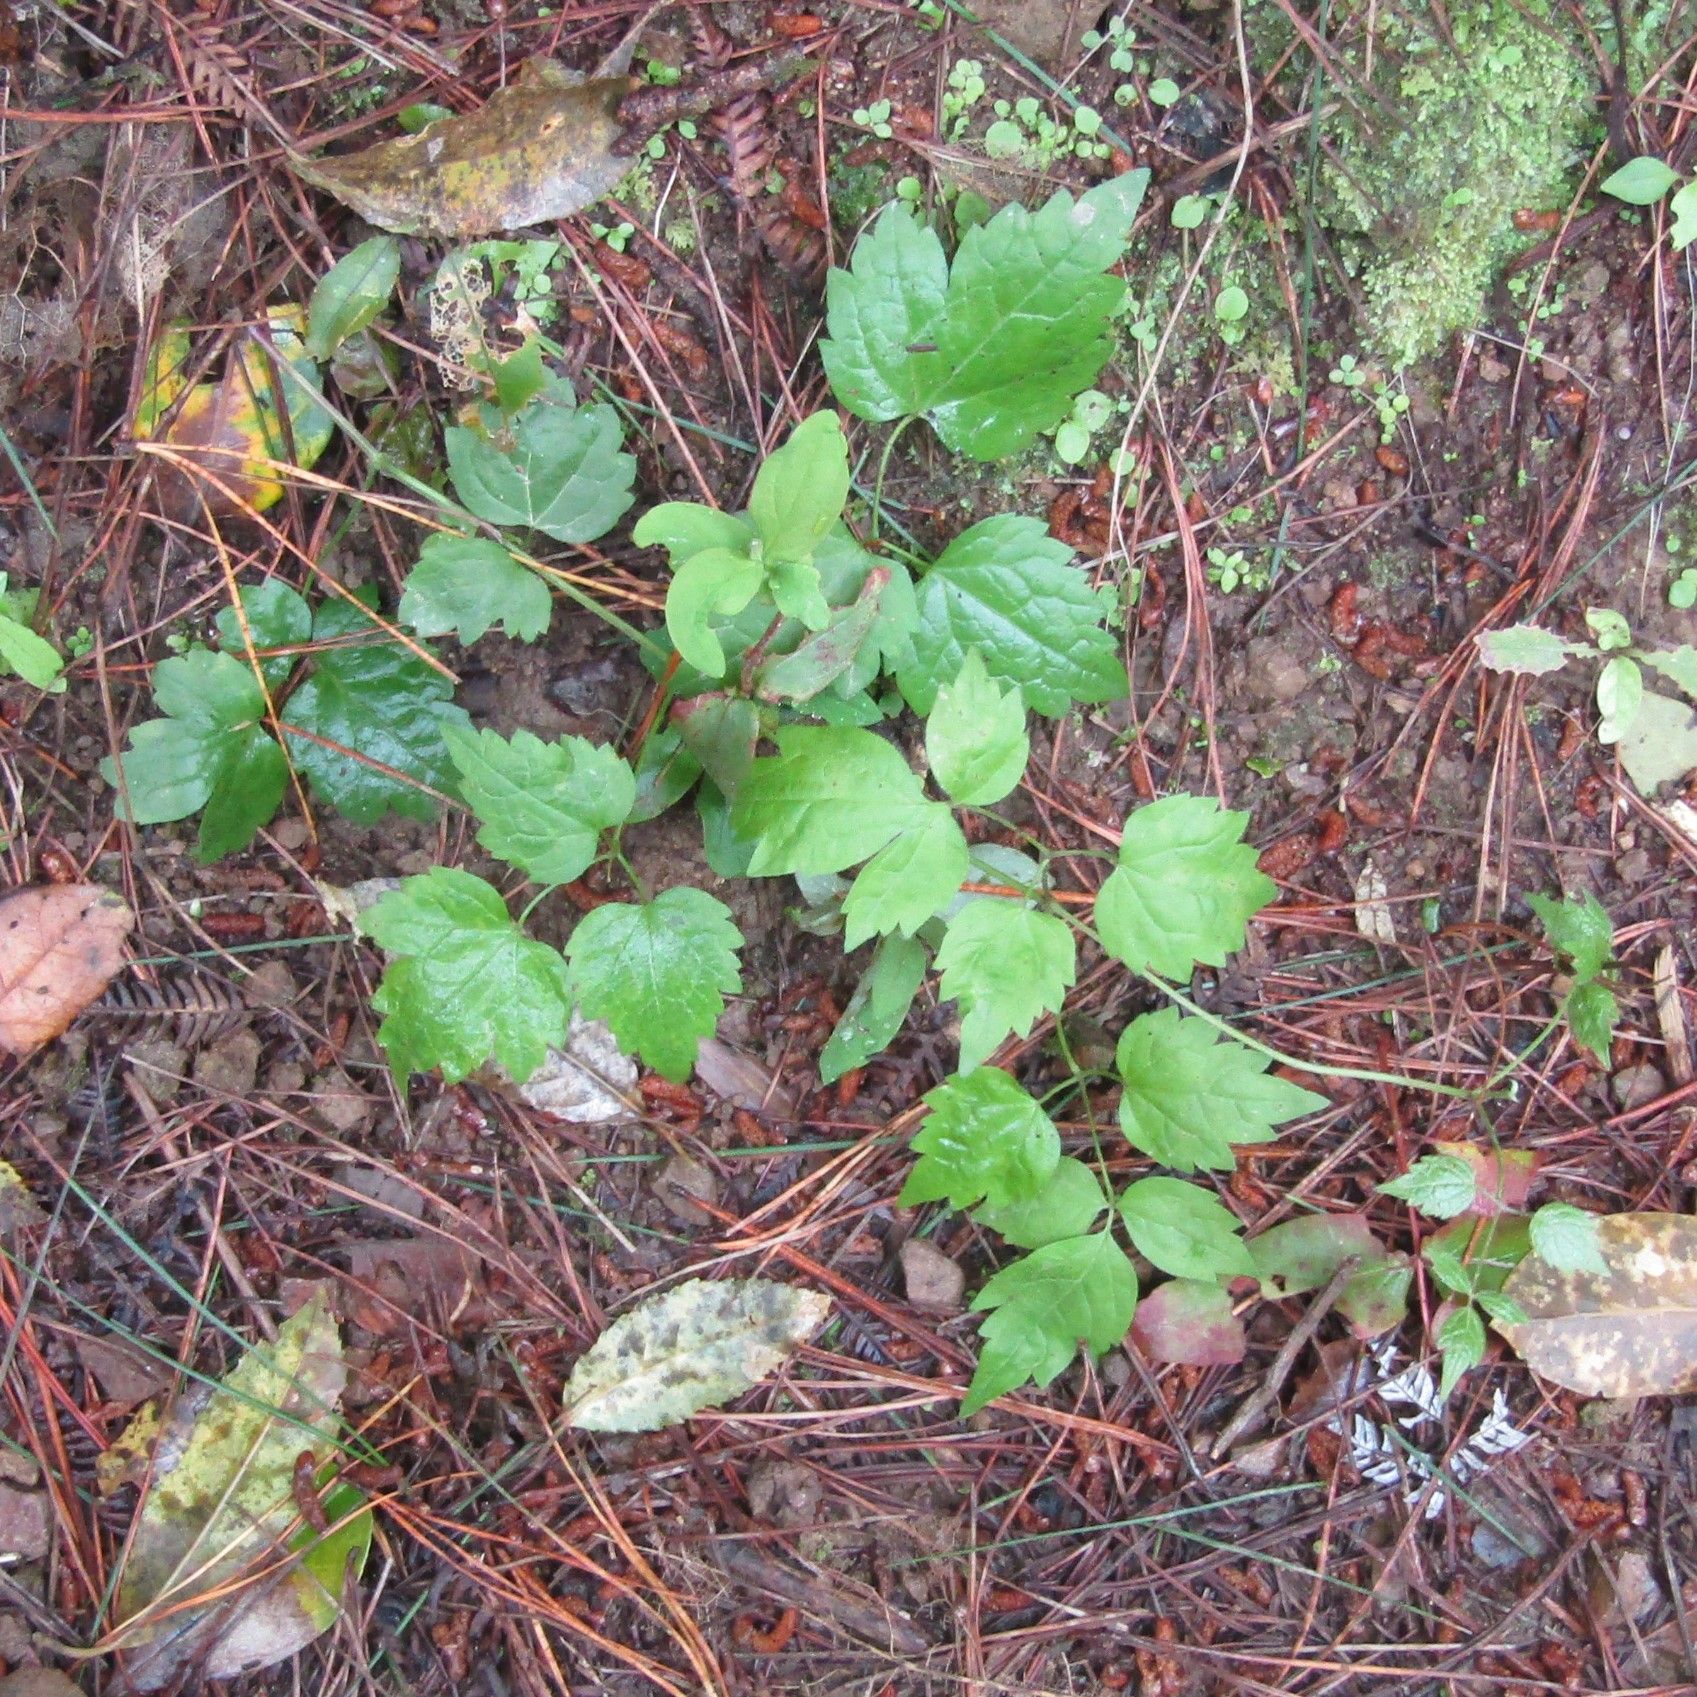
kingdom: Plantae
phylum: Tracheophyta
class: Magnoliopsida
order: Ranunculales
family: Ranunculaceae
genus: Clematis
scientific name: Clematis vitalba
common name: Evergreen clematis
